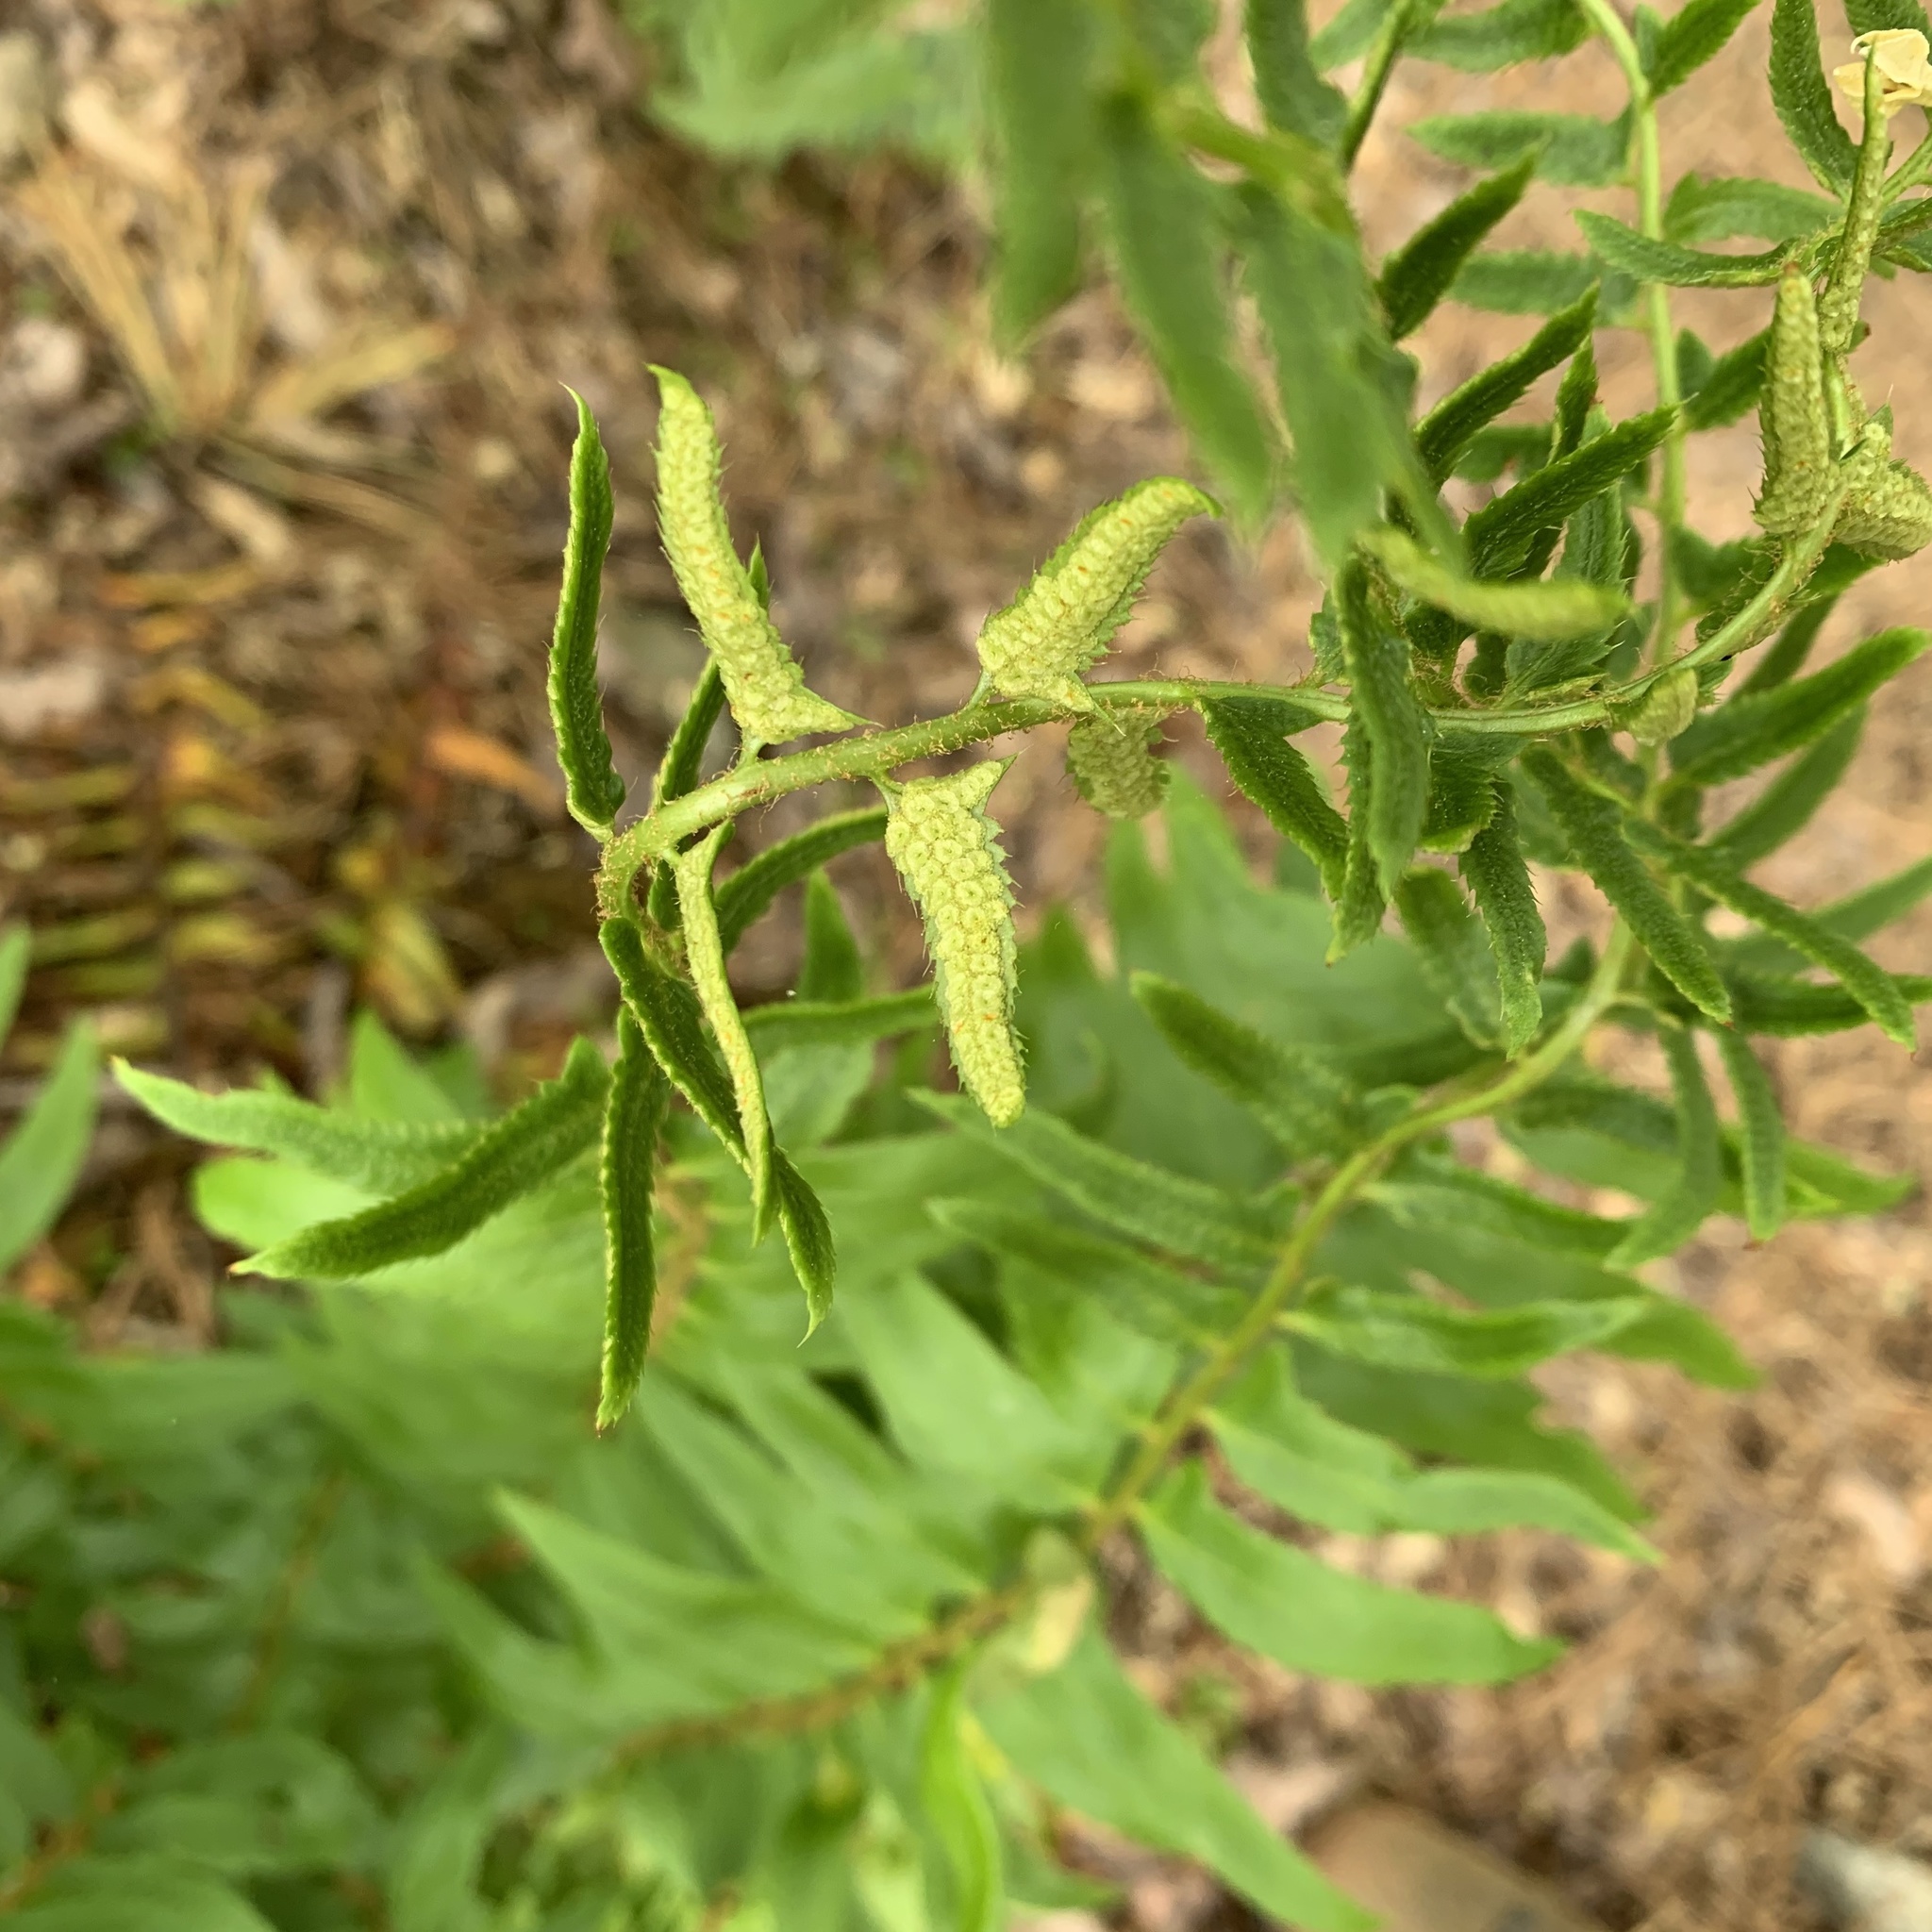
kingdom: Plantae
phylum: Tracheophyta
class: Polypodiopsida
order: Polypodiales
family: Dryopteridaceae
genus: Polystichum
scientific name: Polystichum acrostichoides
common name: Christmas fern
